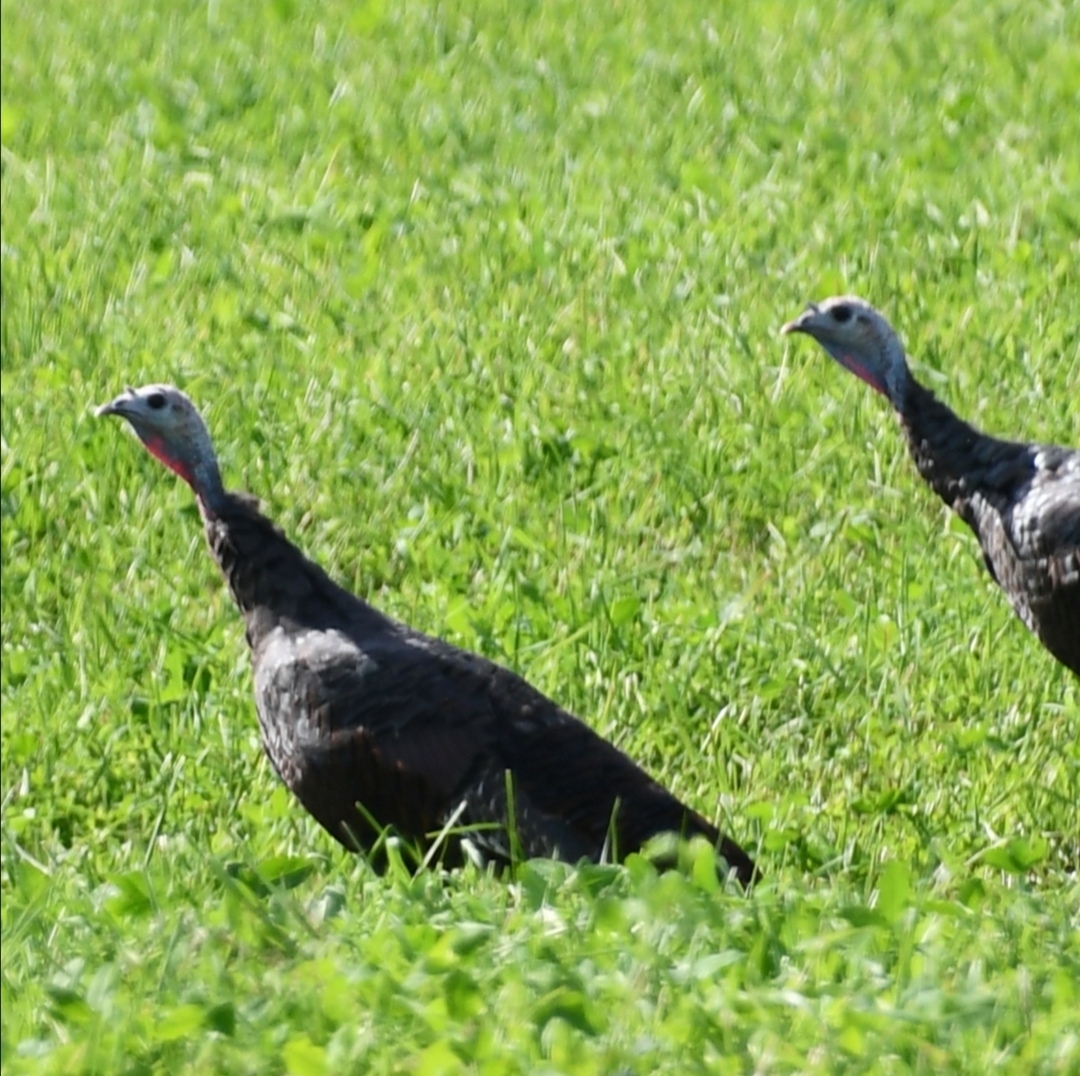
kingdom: Animalia
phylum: Chordata
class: Aves
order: Galliformes
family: Phasianidae
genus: Meleagris
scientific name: Meleagris gallopavo
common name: Wild turkey
